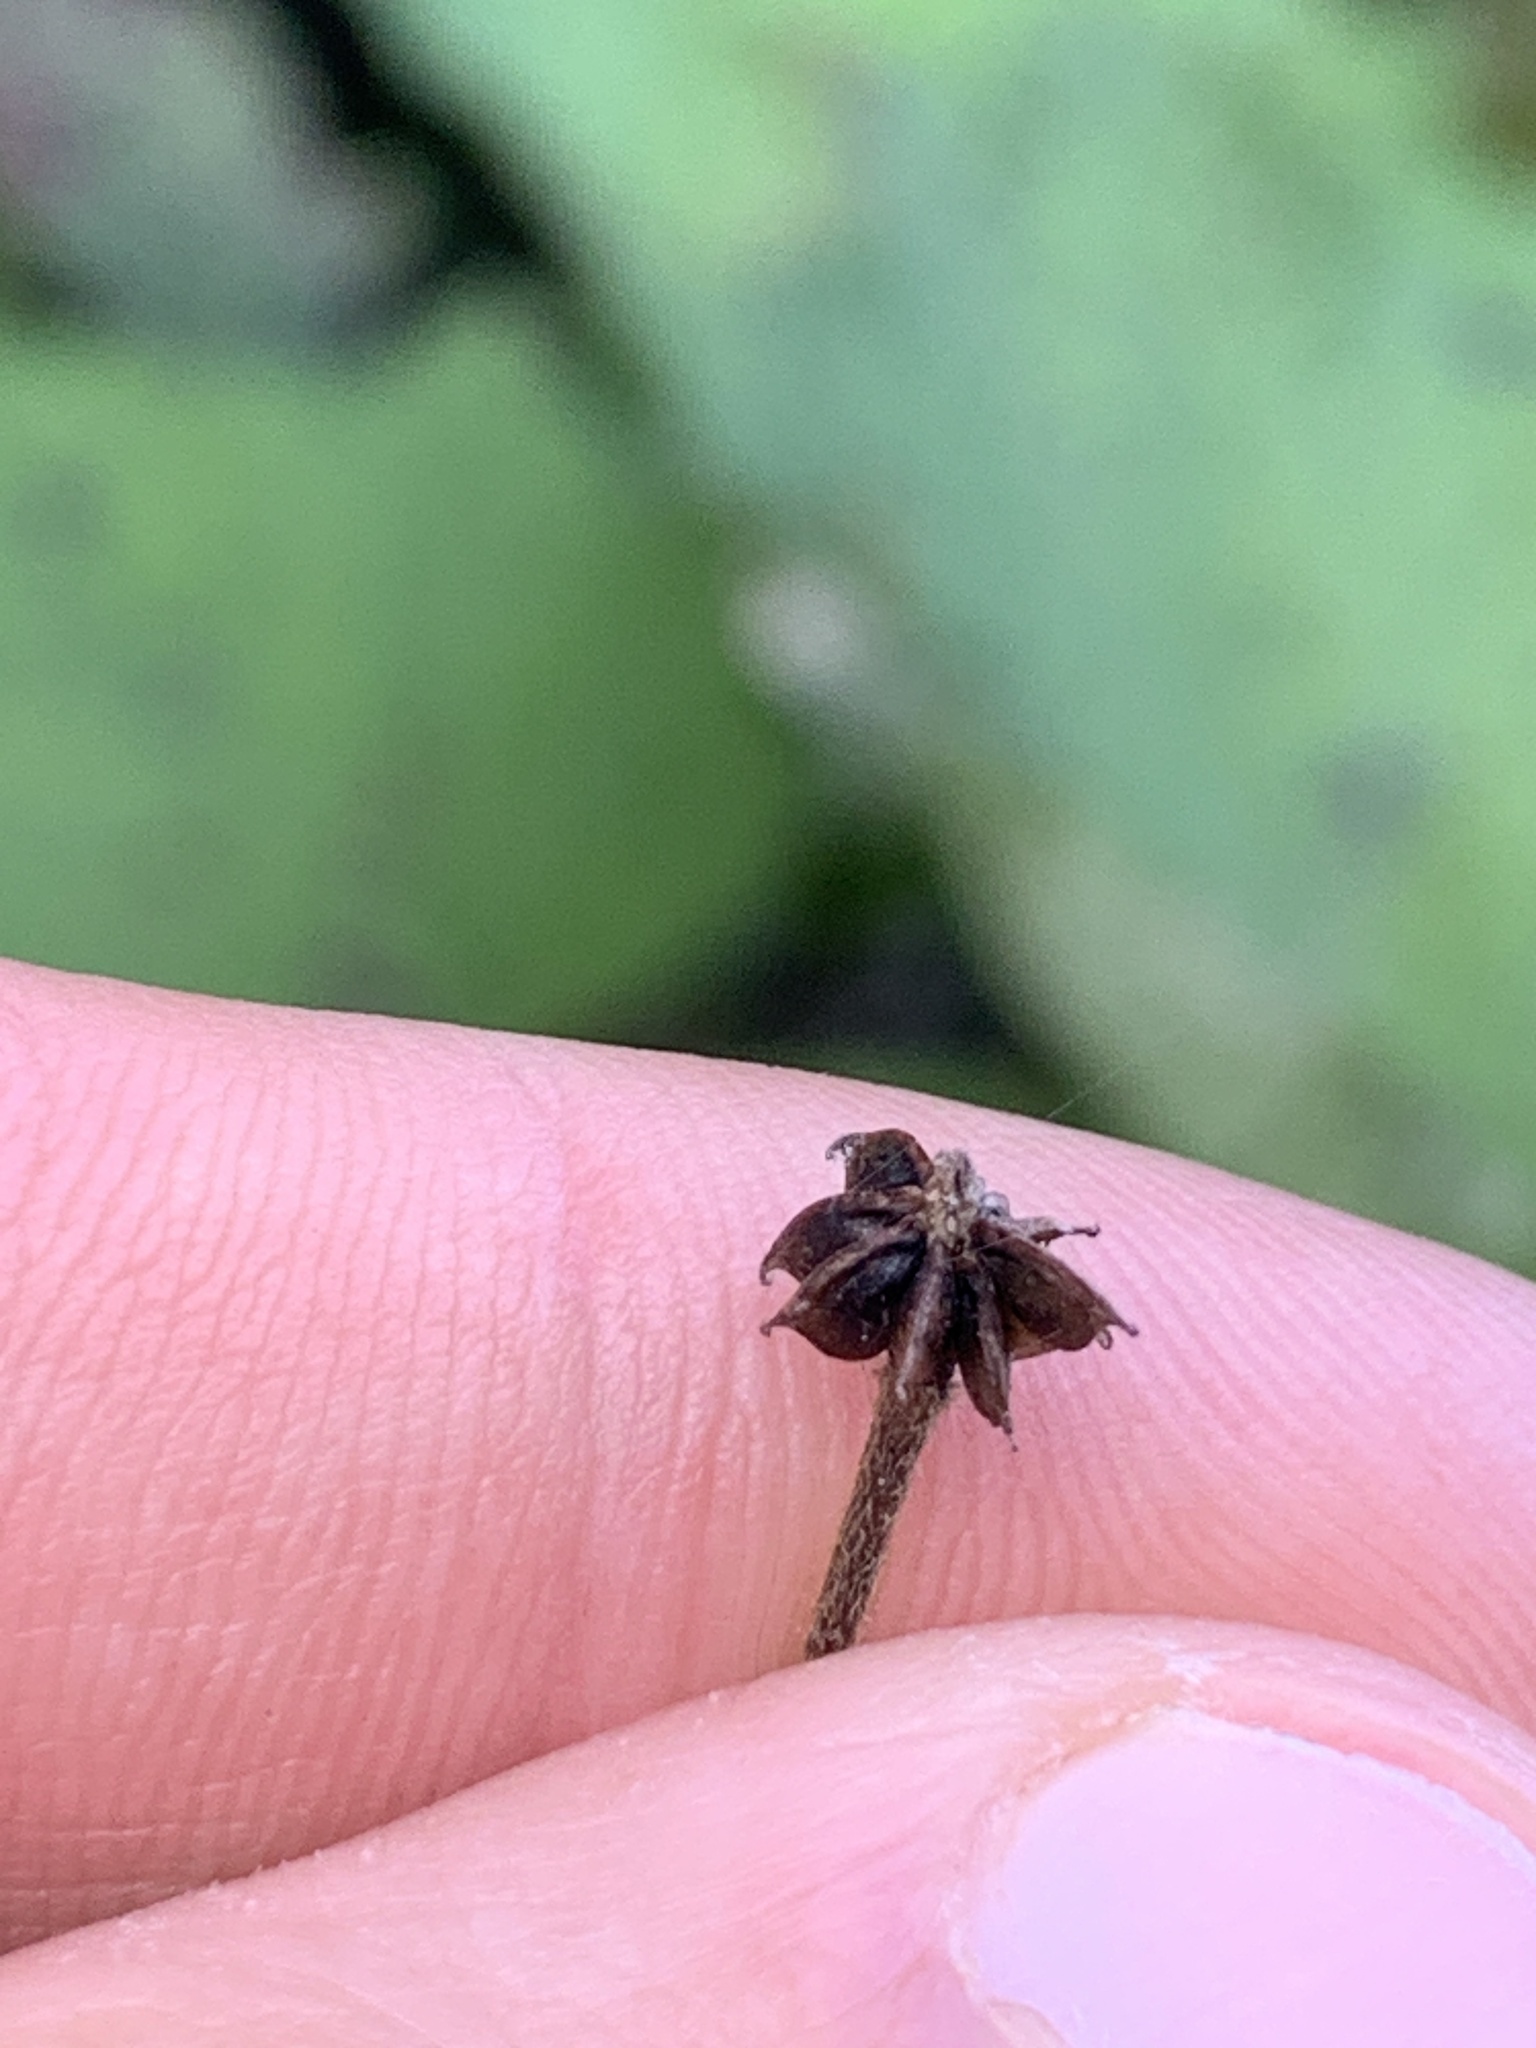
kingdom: Plantae
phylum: Tracheophyta
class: Magnoliopsida
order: Asterales
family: Asteraceae
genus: Tussilago
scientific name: Tussilago farfara
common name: Coltsfoot
